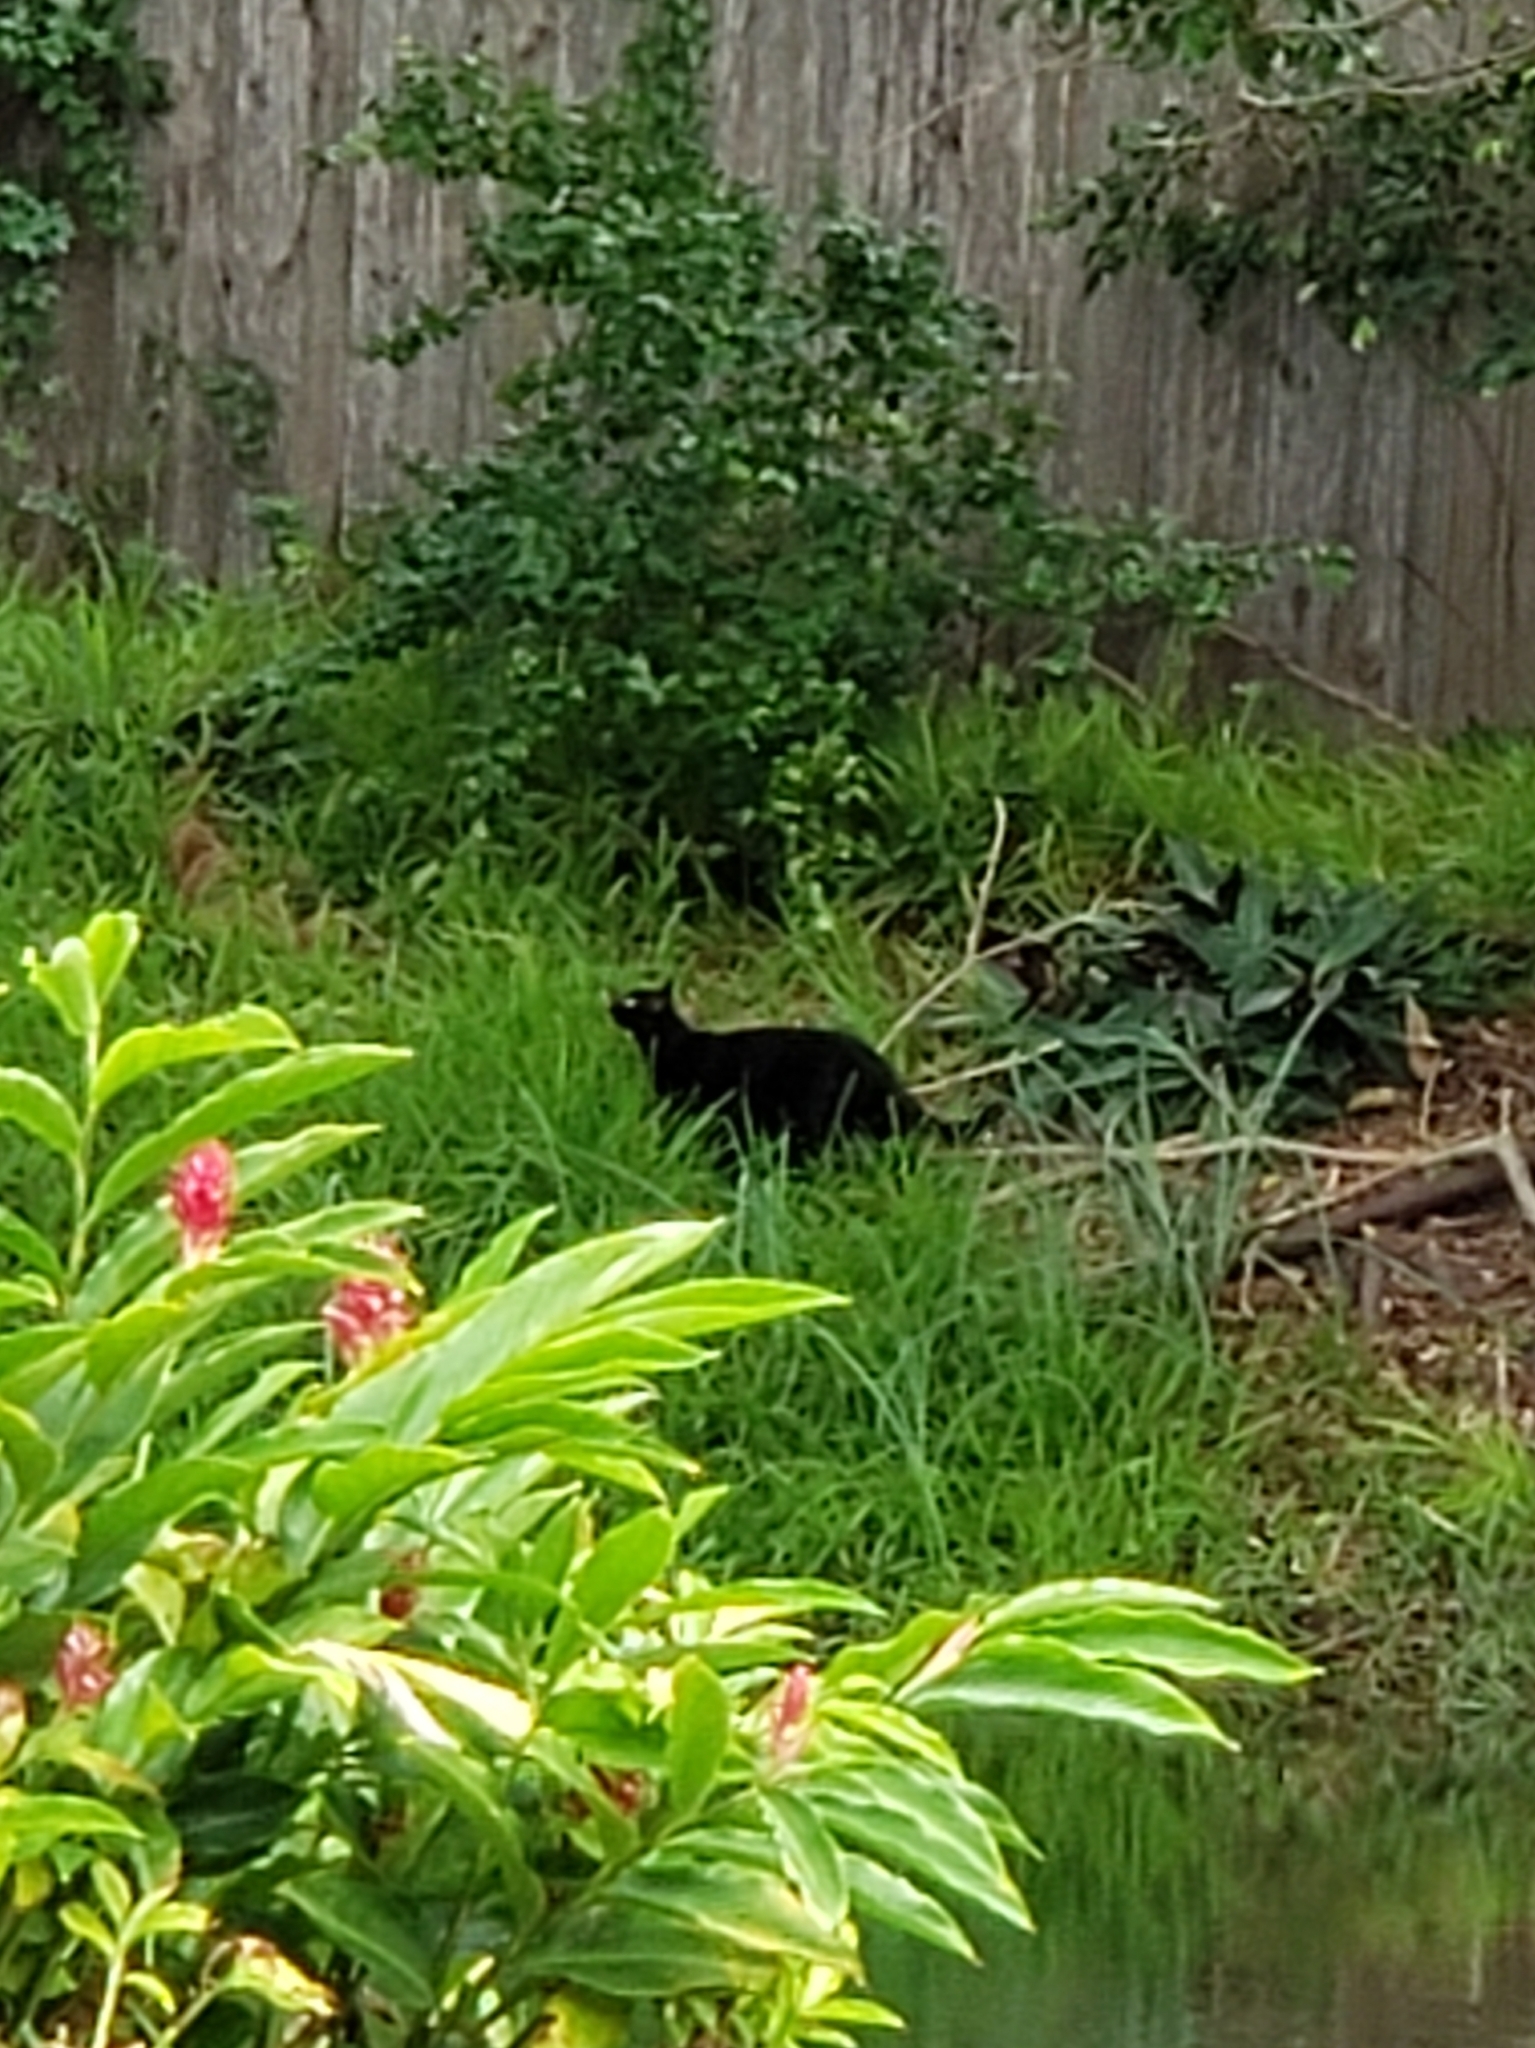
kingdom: Animalia
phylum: Chordata
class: Mammalia
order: Carnivora
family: Felidae
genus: Felis
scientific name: Felis catus
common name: Domestic cat
